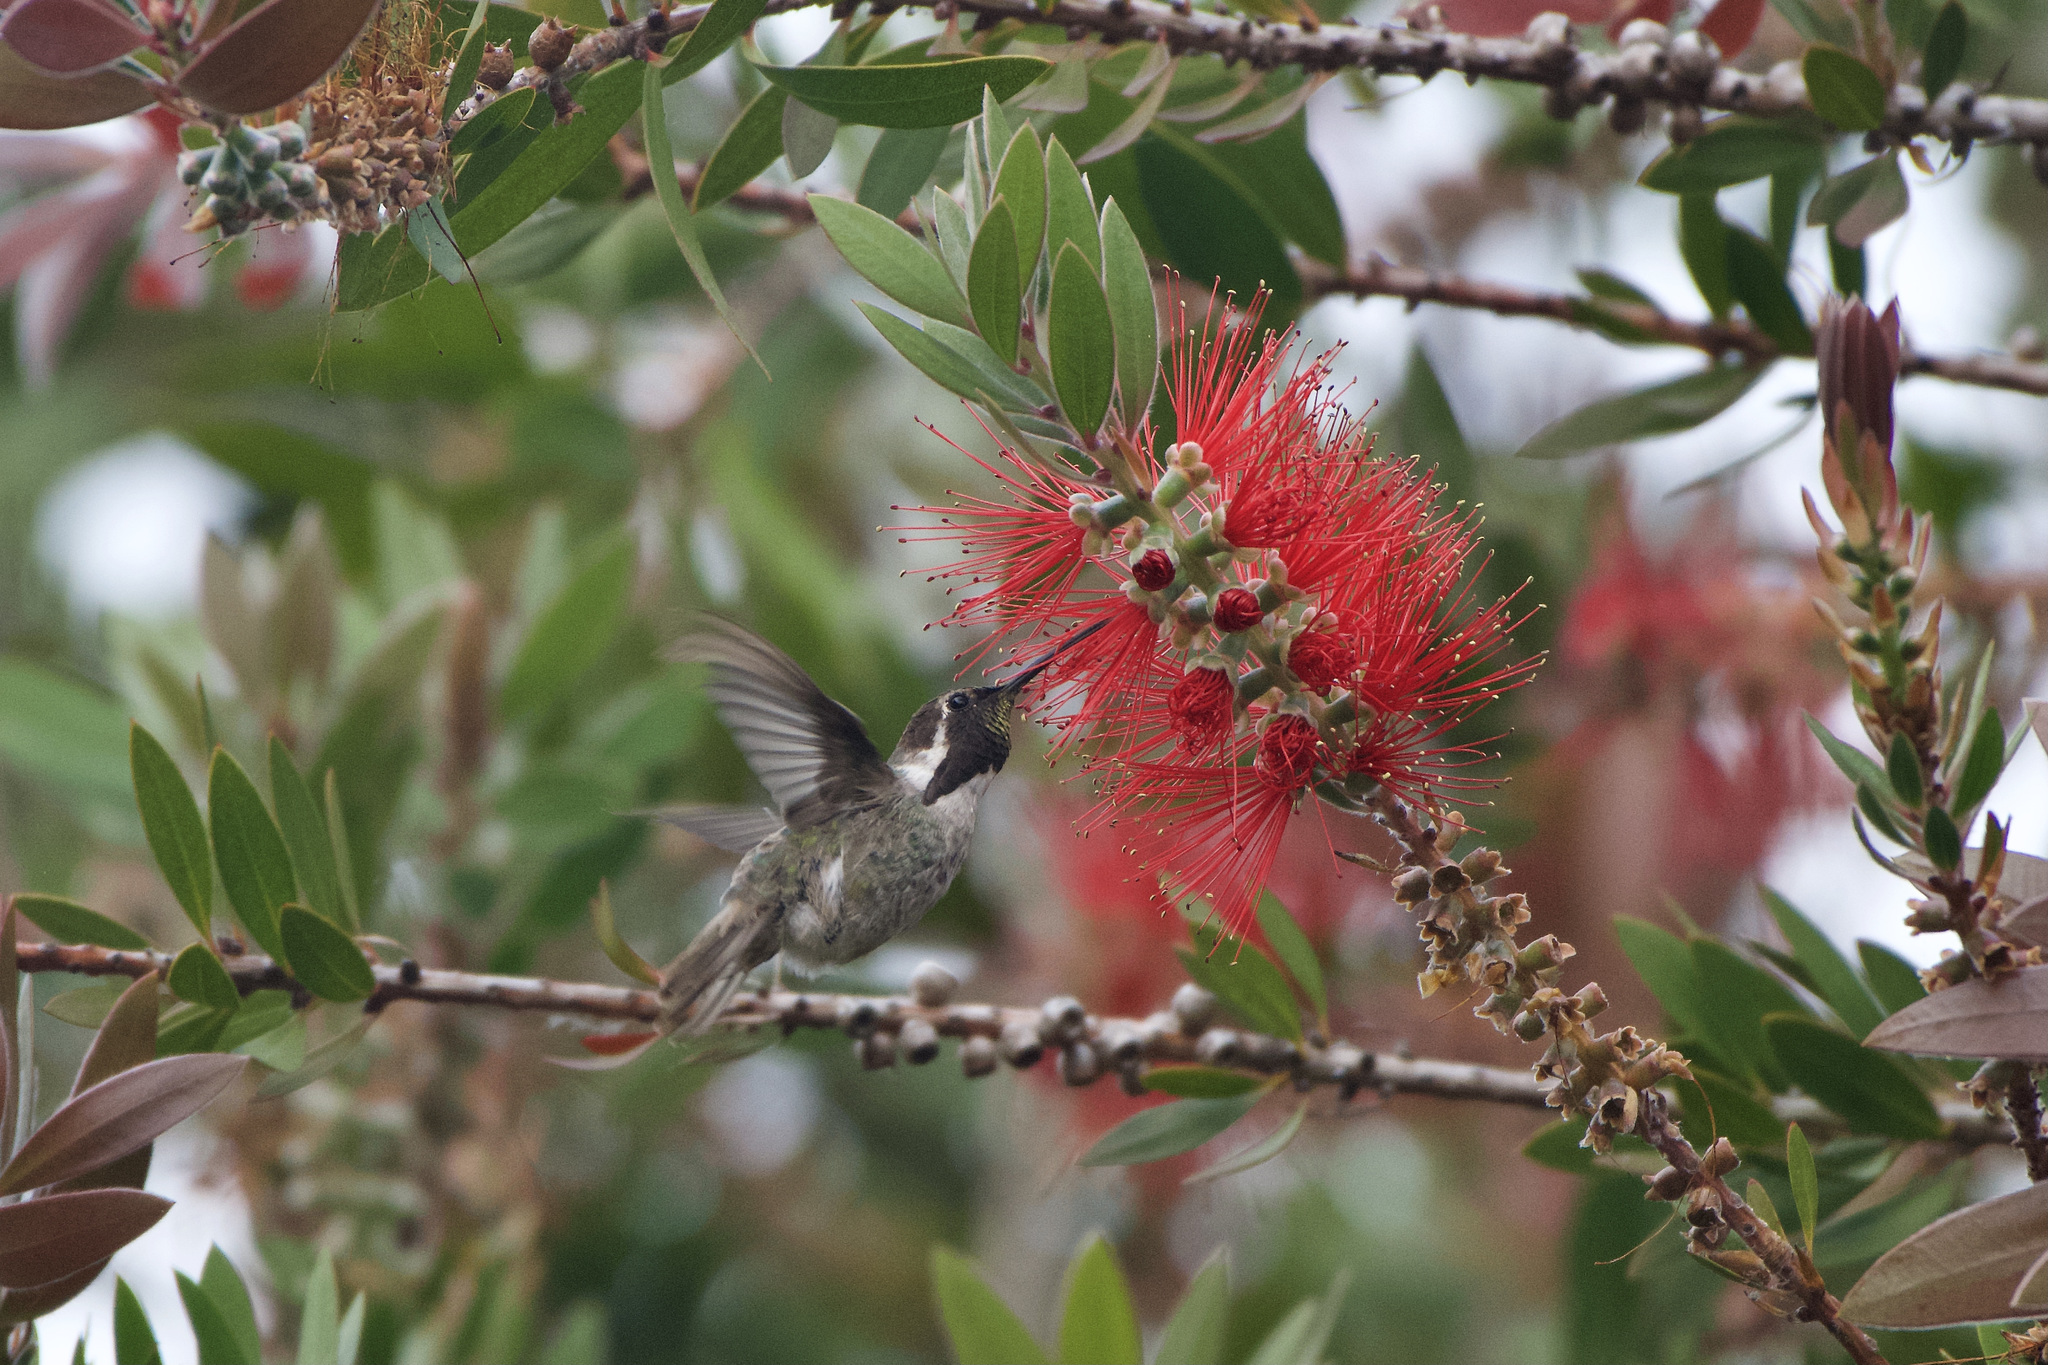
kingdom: Animalia
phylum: Chordata
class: Aves
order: Apodiformes
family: Trochilidae
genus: Calypte
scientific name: Calypte costae
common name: Costa's hummingbird
